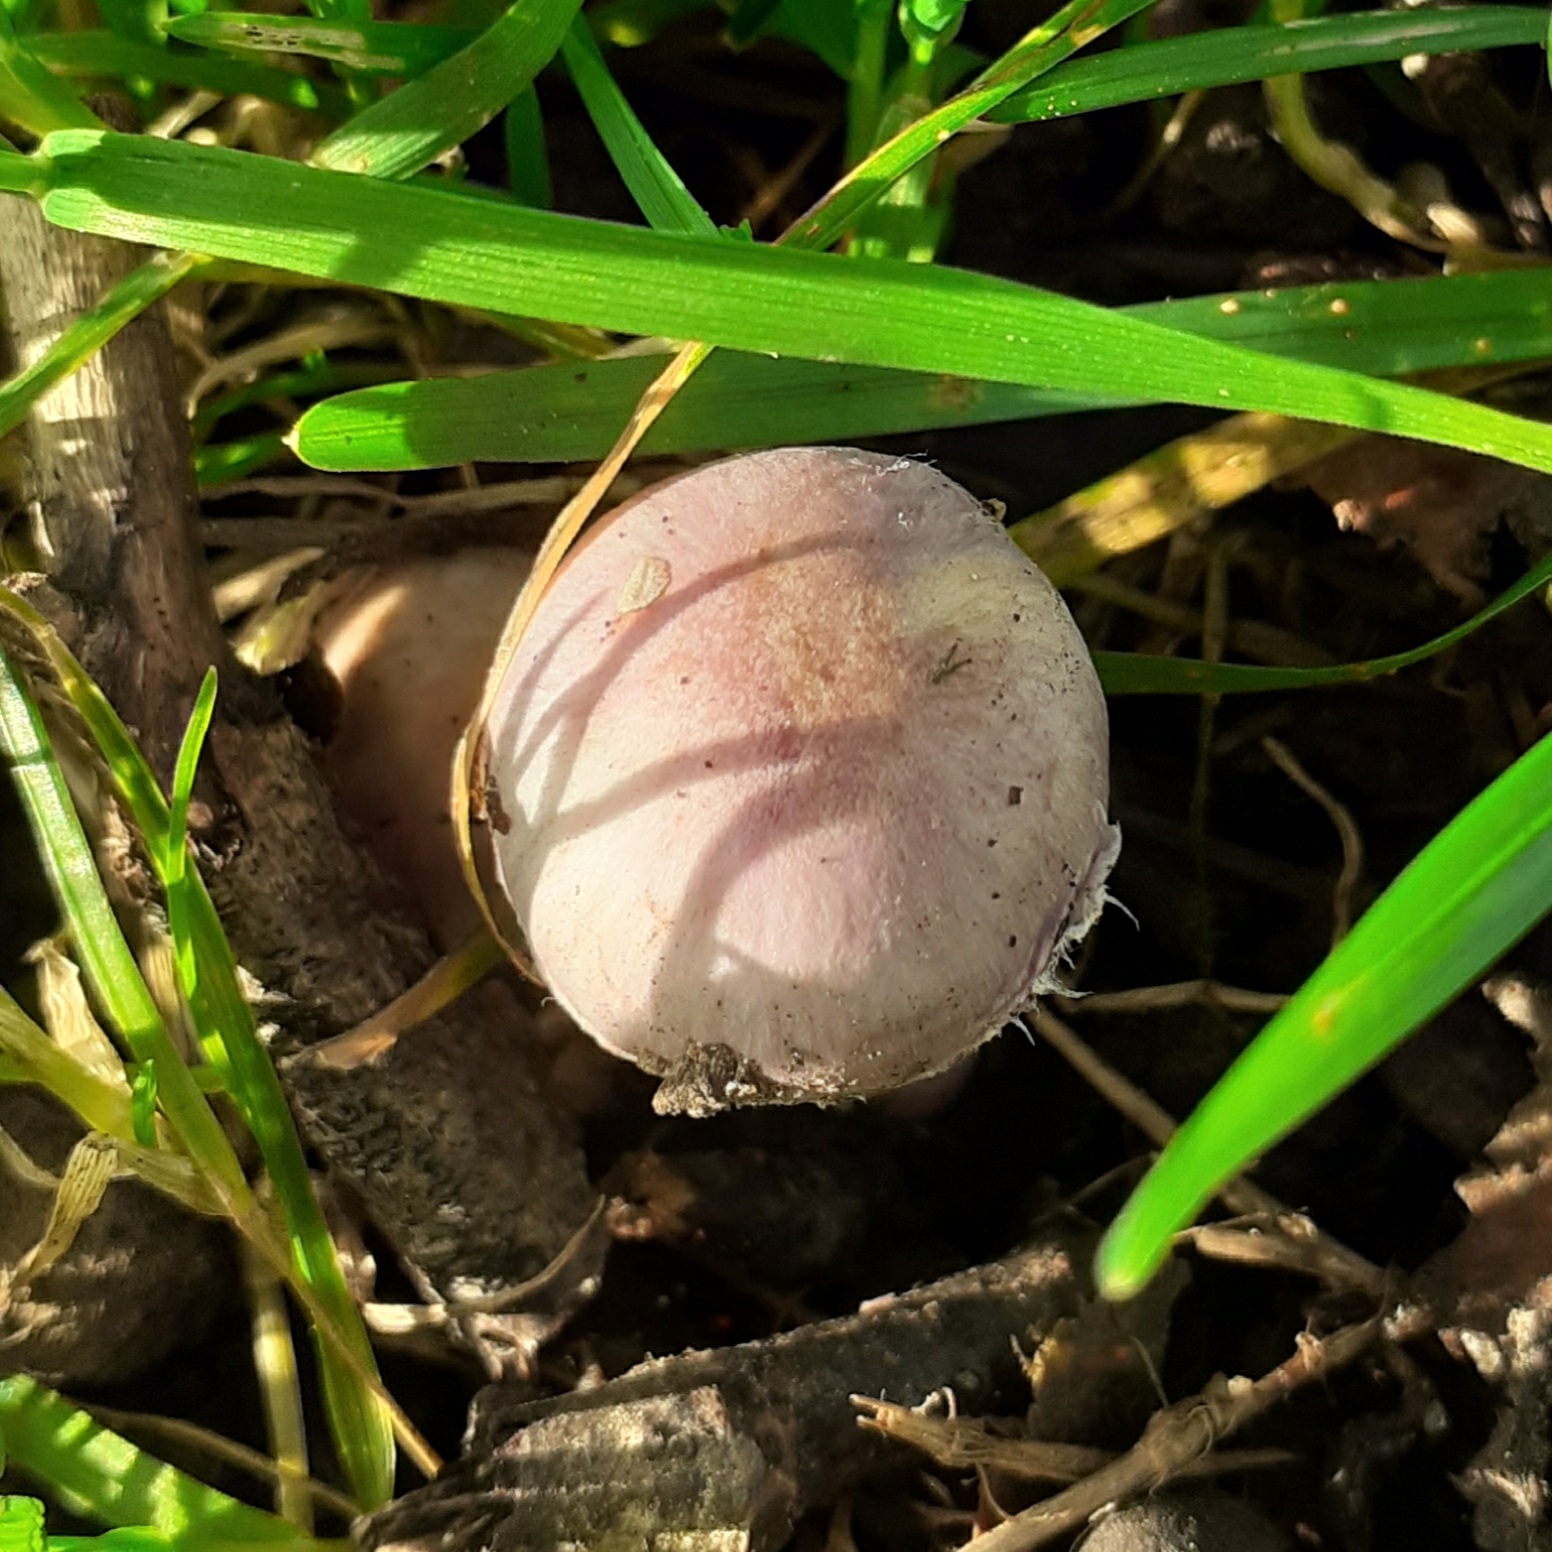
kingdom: Fungi
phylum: Basidiomycota
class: Agaricomycetes
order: Agaricales
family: Inocybaceae
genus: Inocybe
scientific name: Inocybe geophylla
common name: White fibrecap
